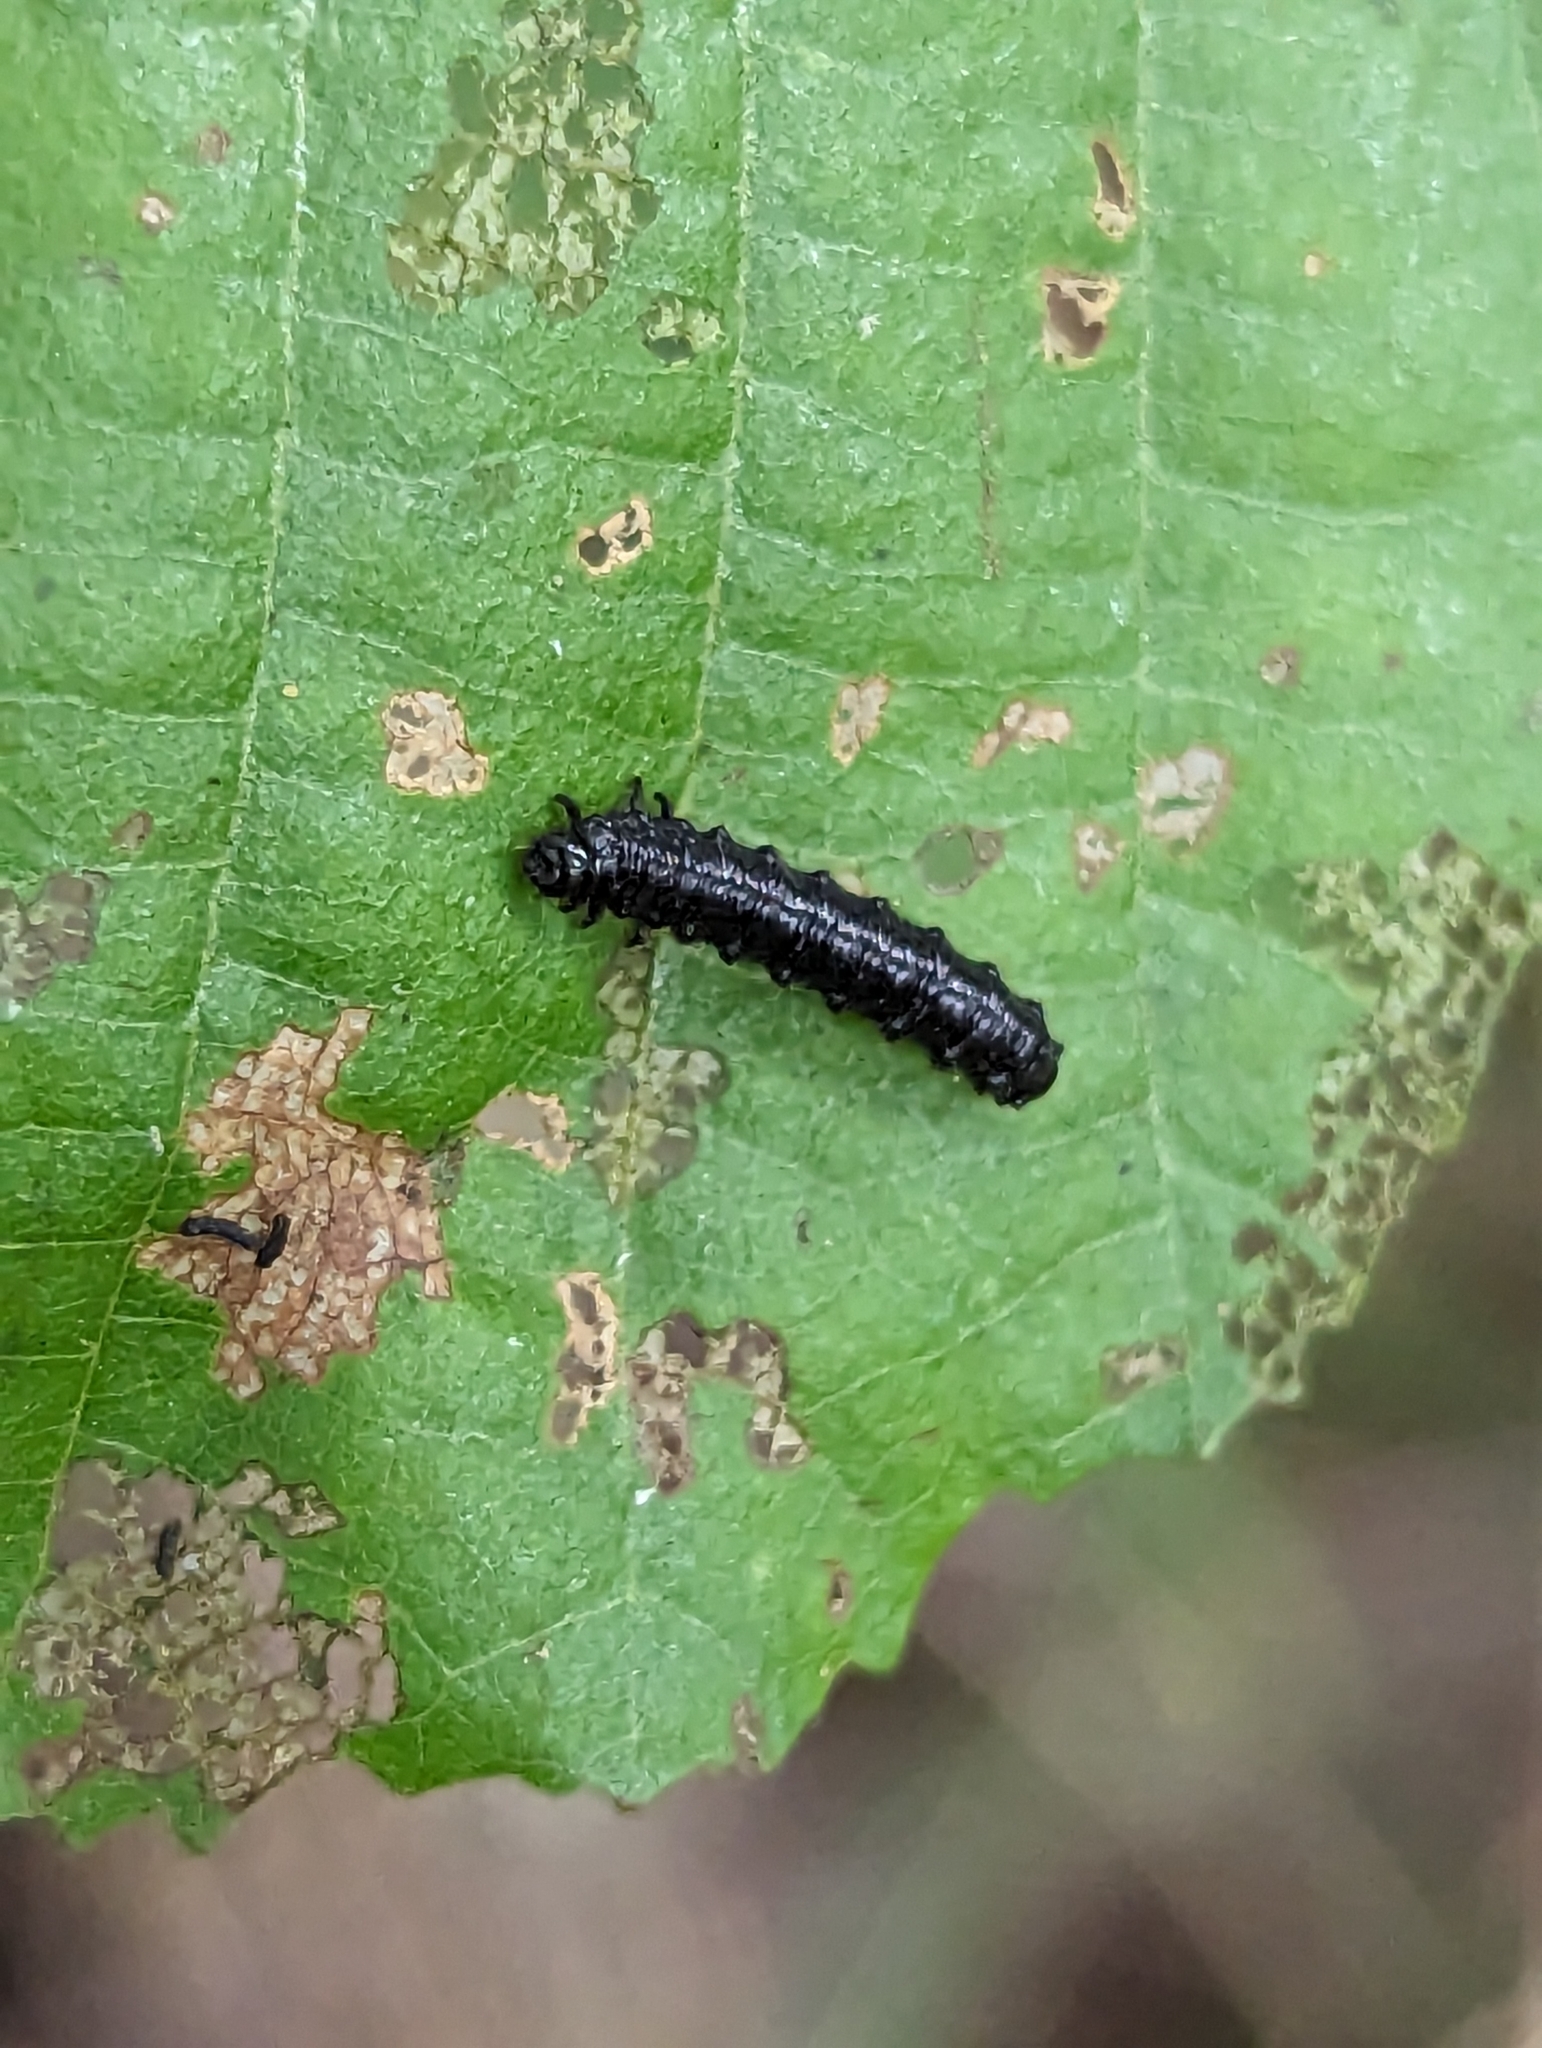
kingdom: Animalia
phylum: Arthropoda
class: Insecta
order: Coleoptera
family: Chrysomelidae
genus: Agelastica
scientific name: Agelastica alni
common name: Alder leaf beetle
